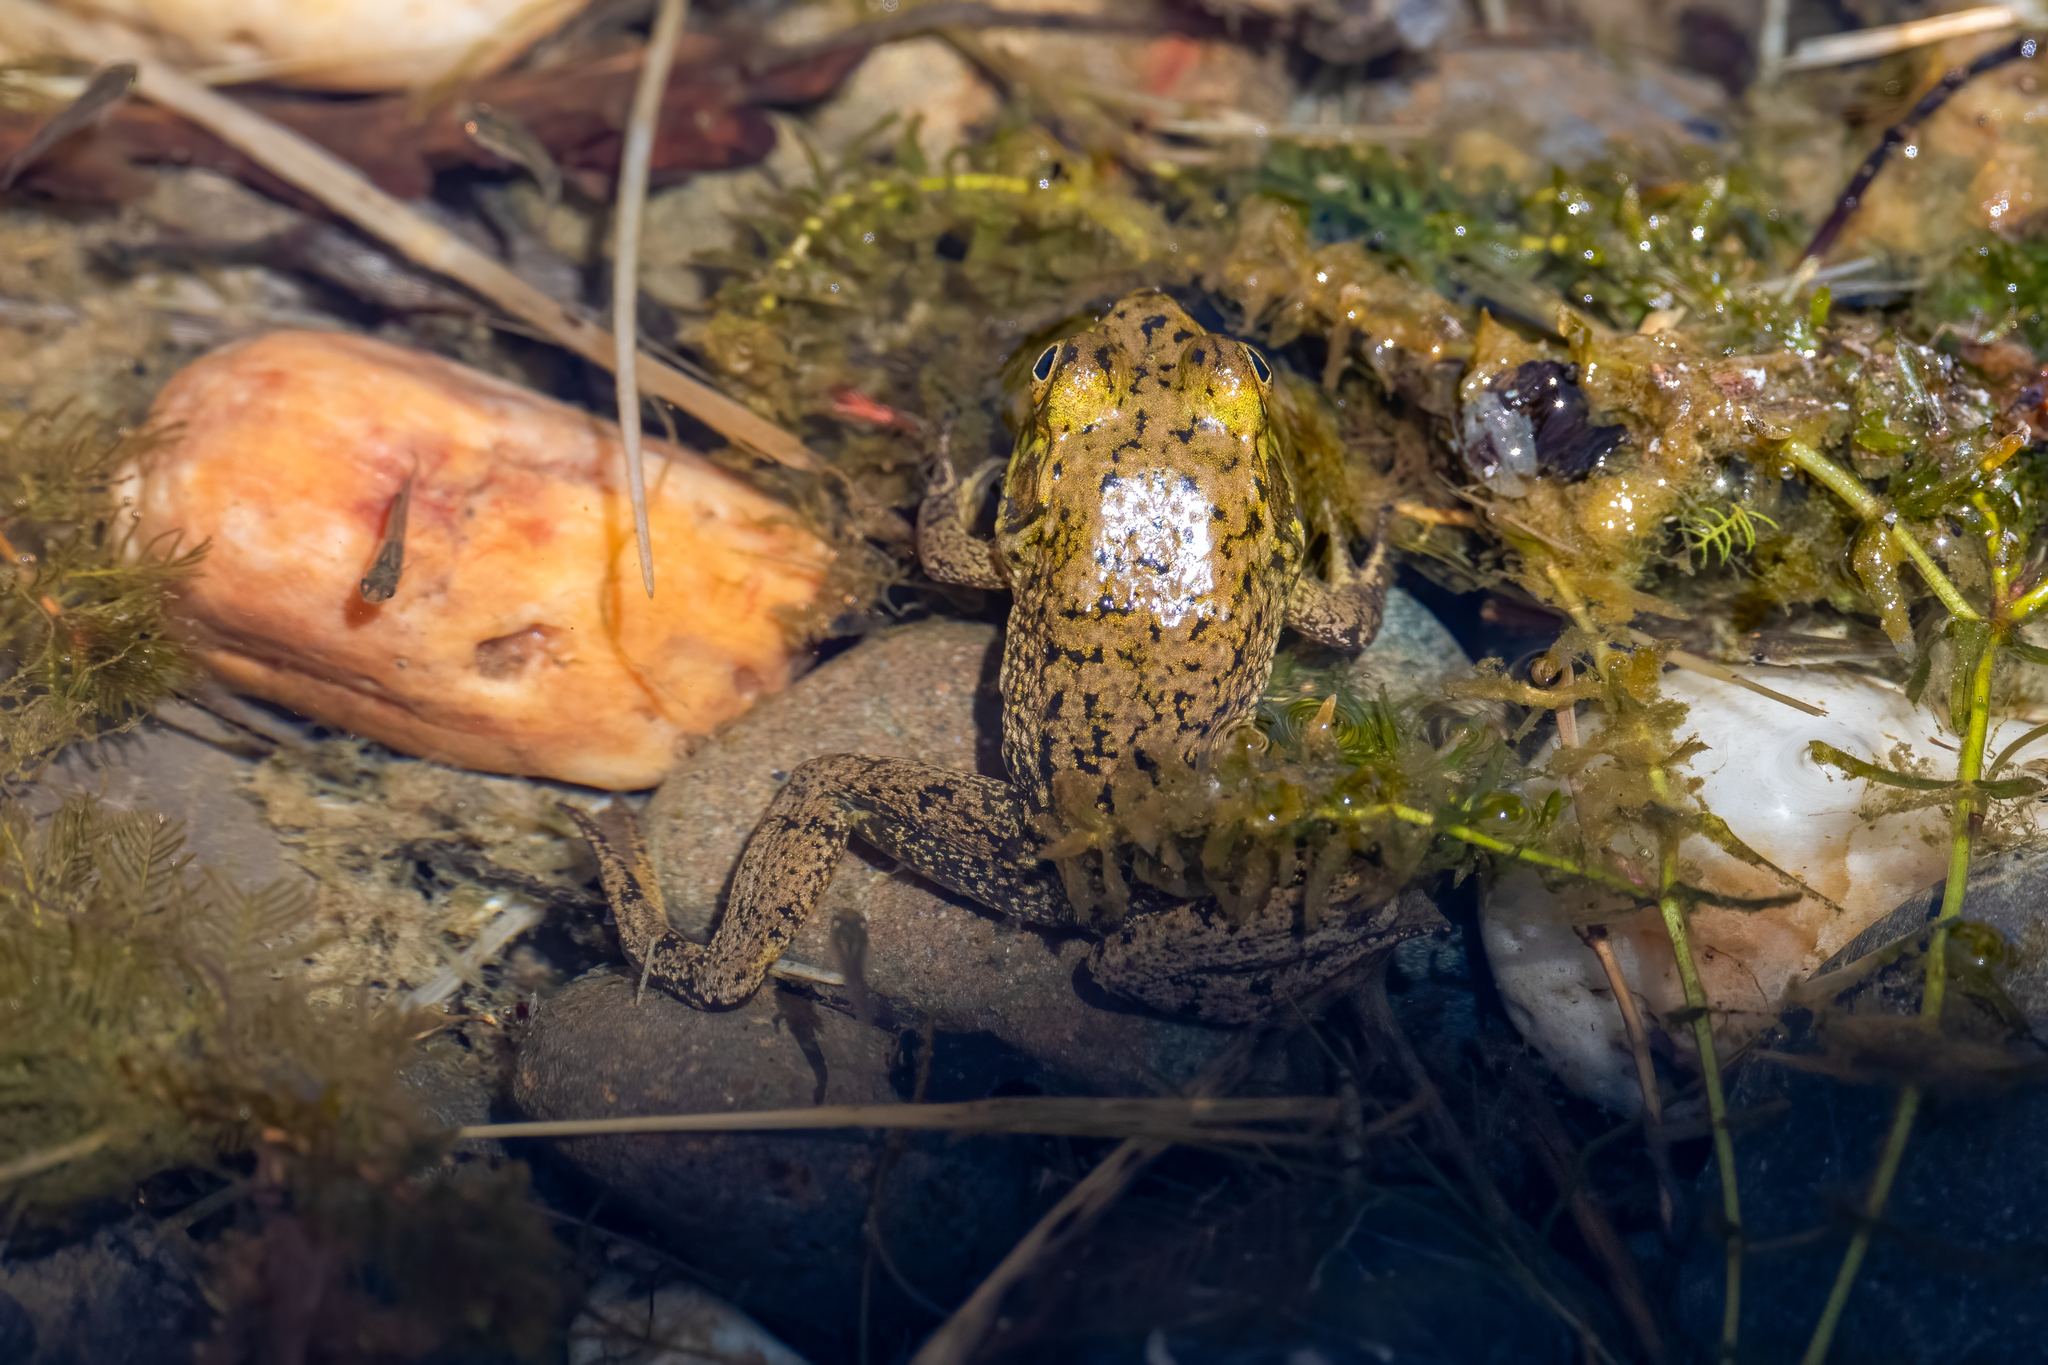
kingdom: Animalia
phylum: Chordata
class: Amphibia
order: Anura
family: Ranidae
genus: Lithobates
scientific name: Lithobates catesbeianus
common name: American bullfrog
